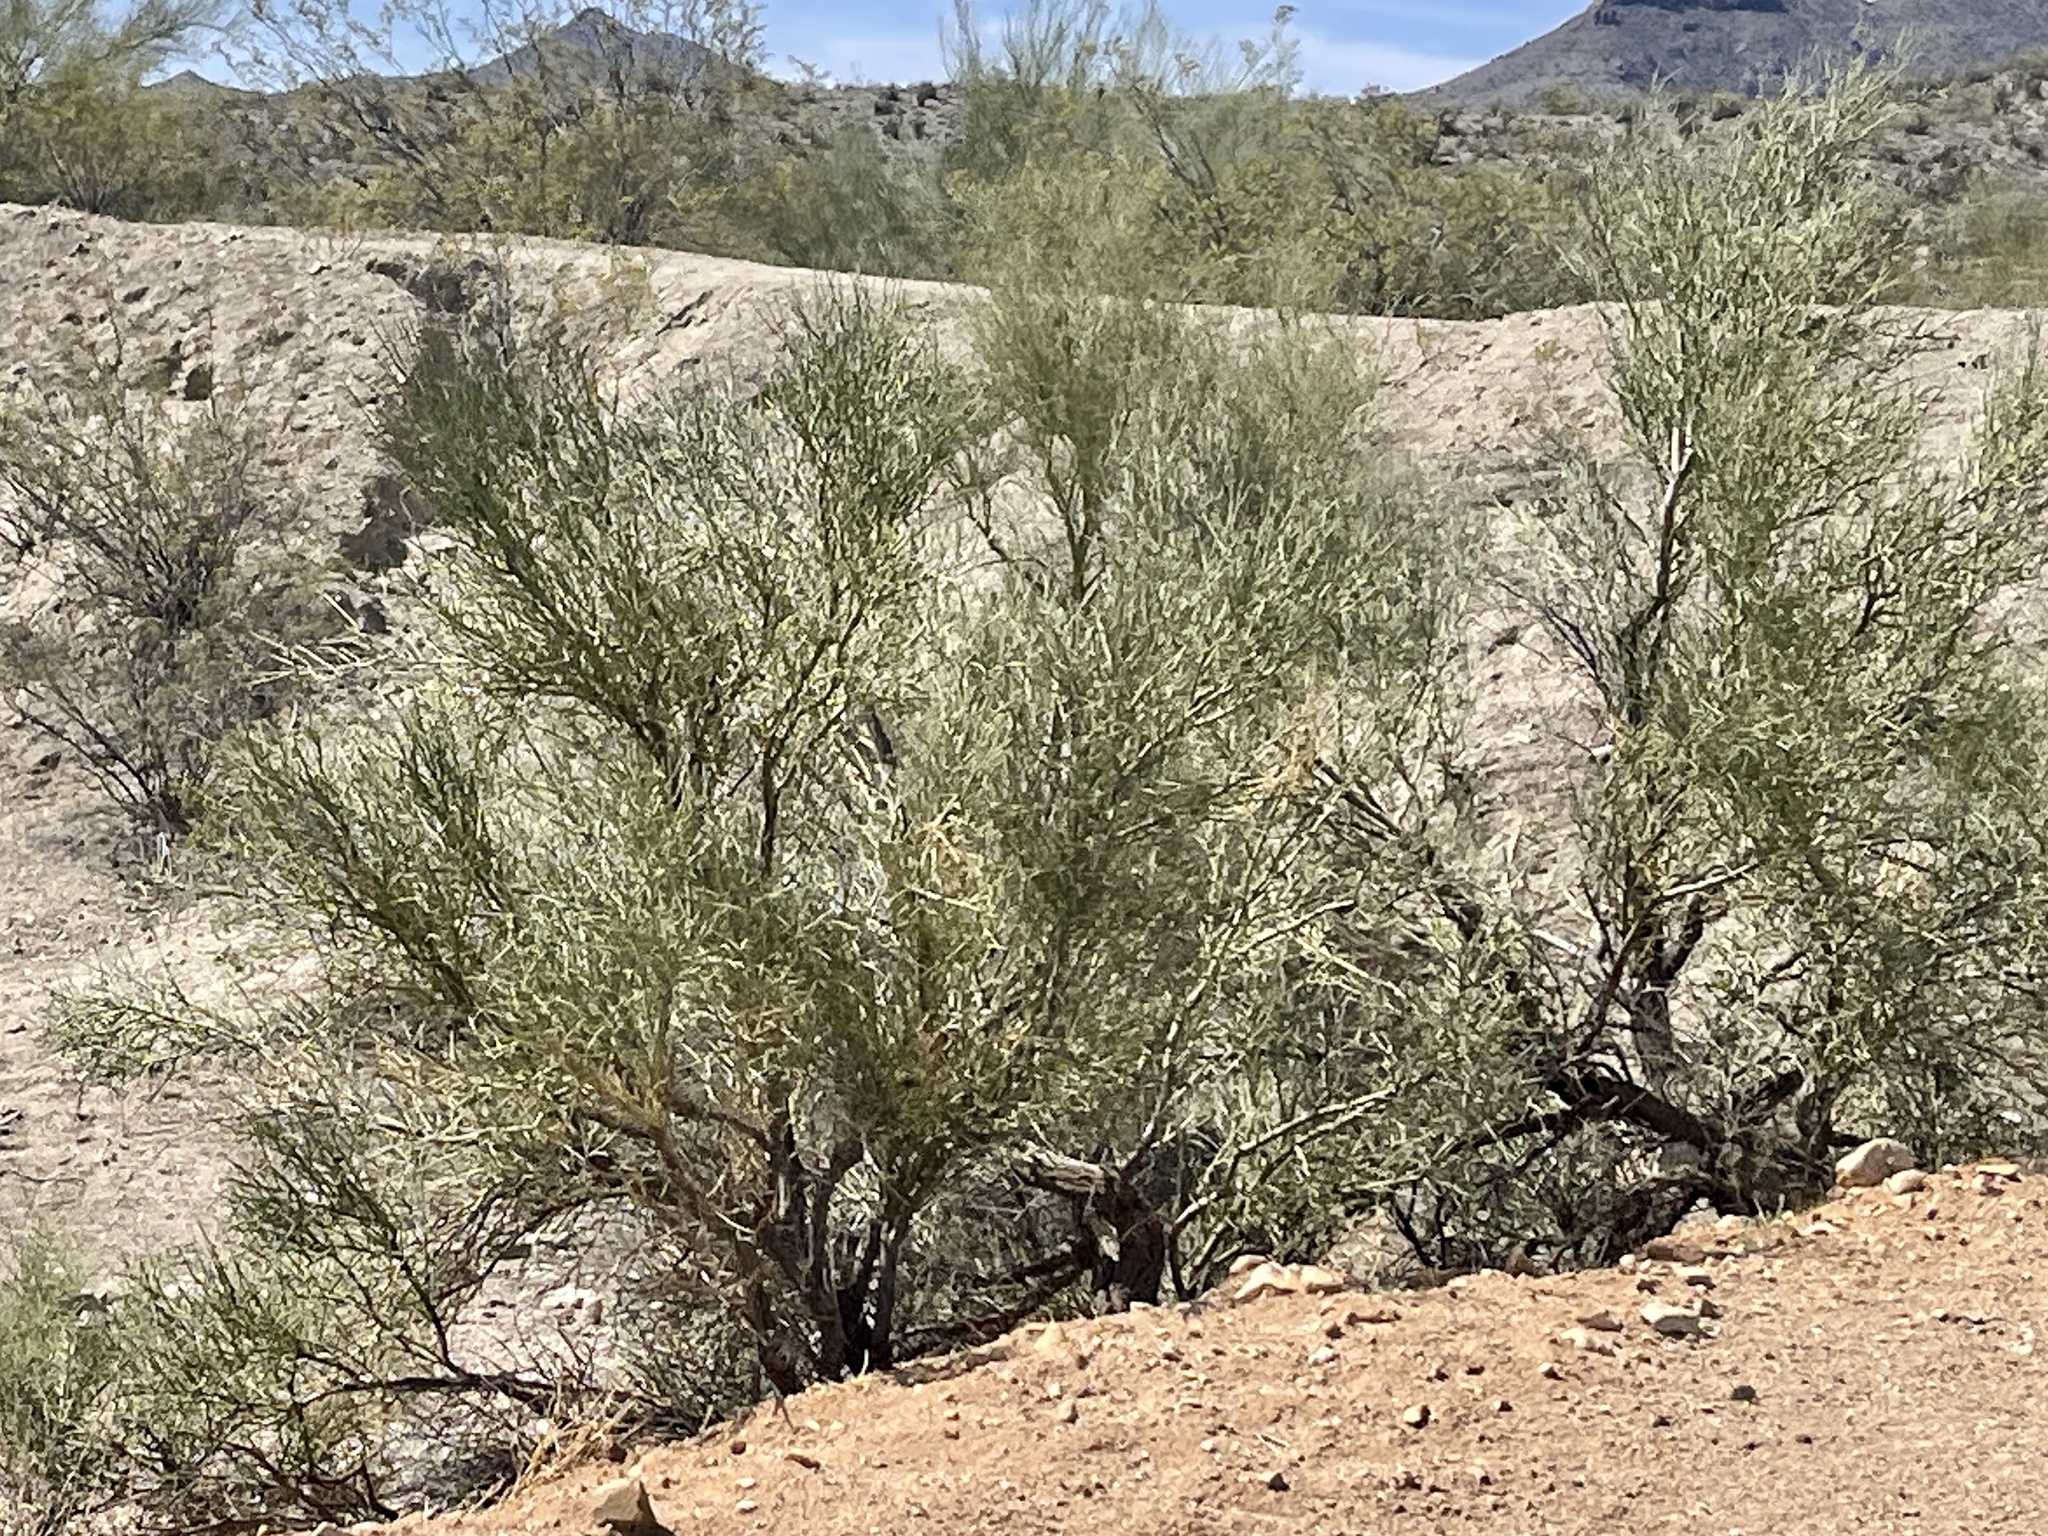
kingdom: Plantae
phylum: Tracheophyta
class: Magnoliopsida
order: Fabales
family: Fabaceae
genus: Parkinsonia
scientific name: Parkinsonia microphylla
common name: Yellow paloverde
